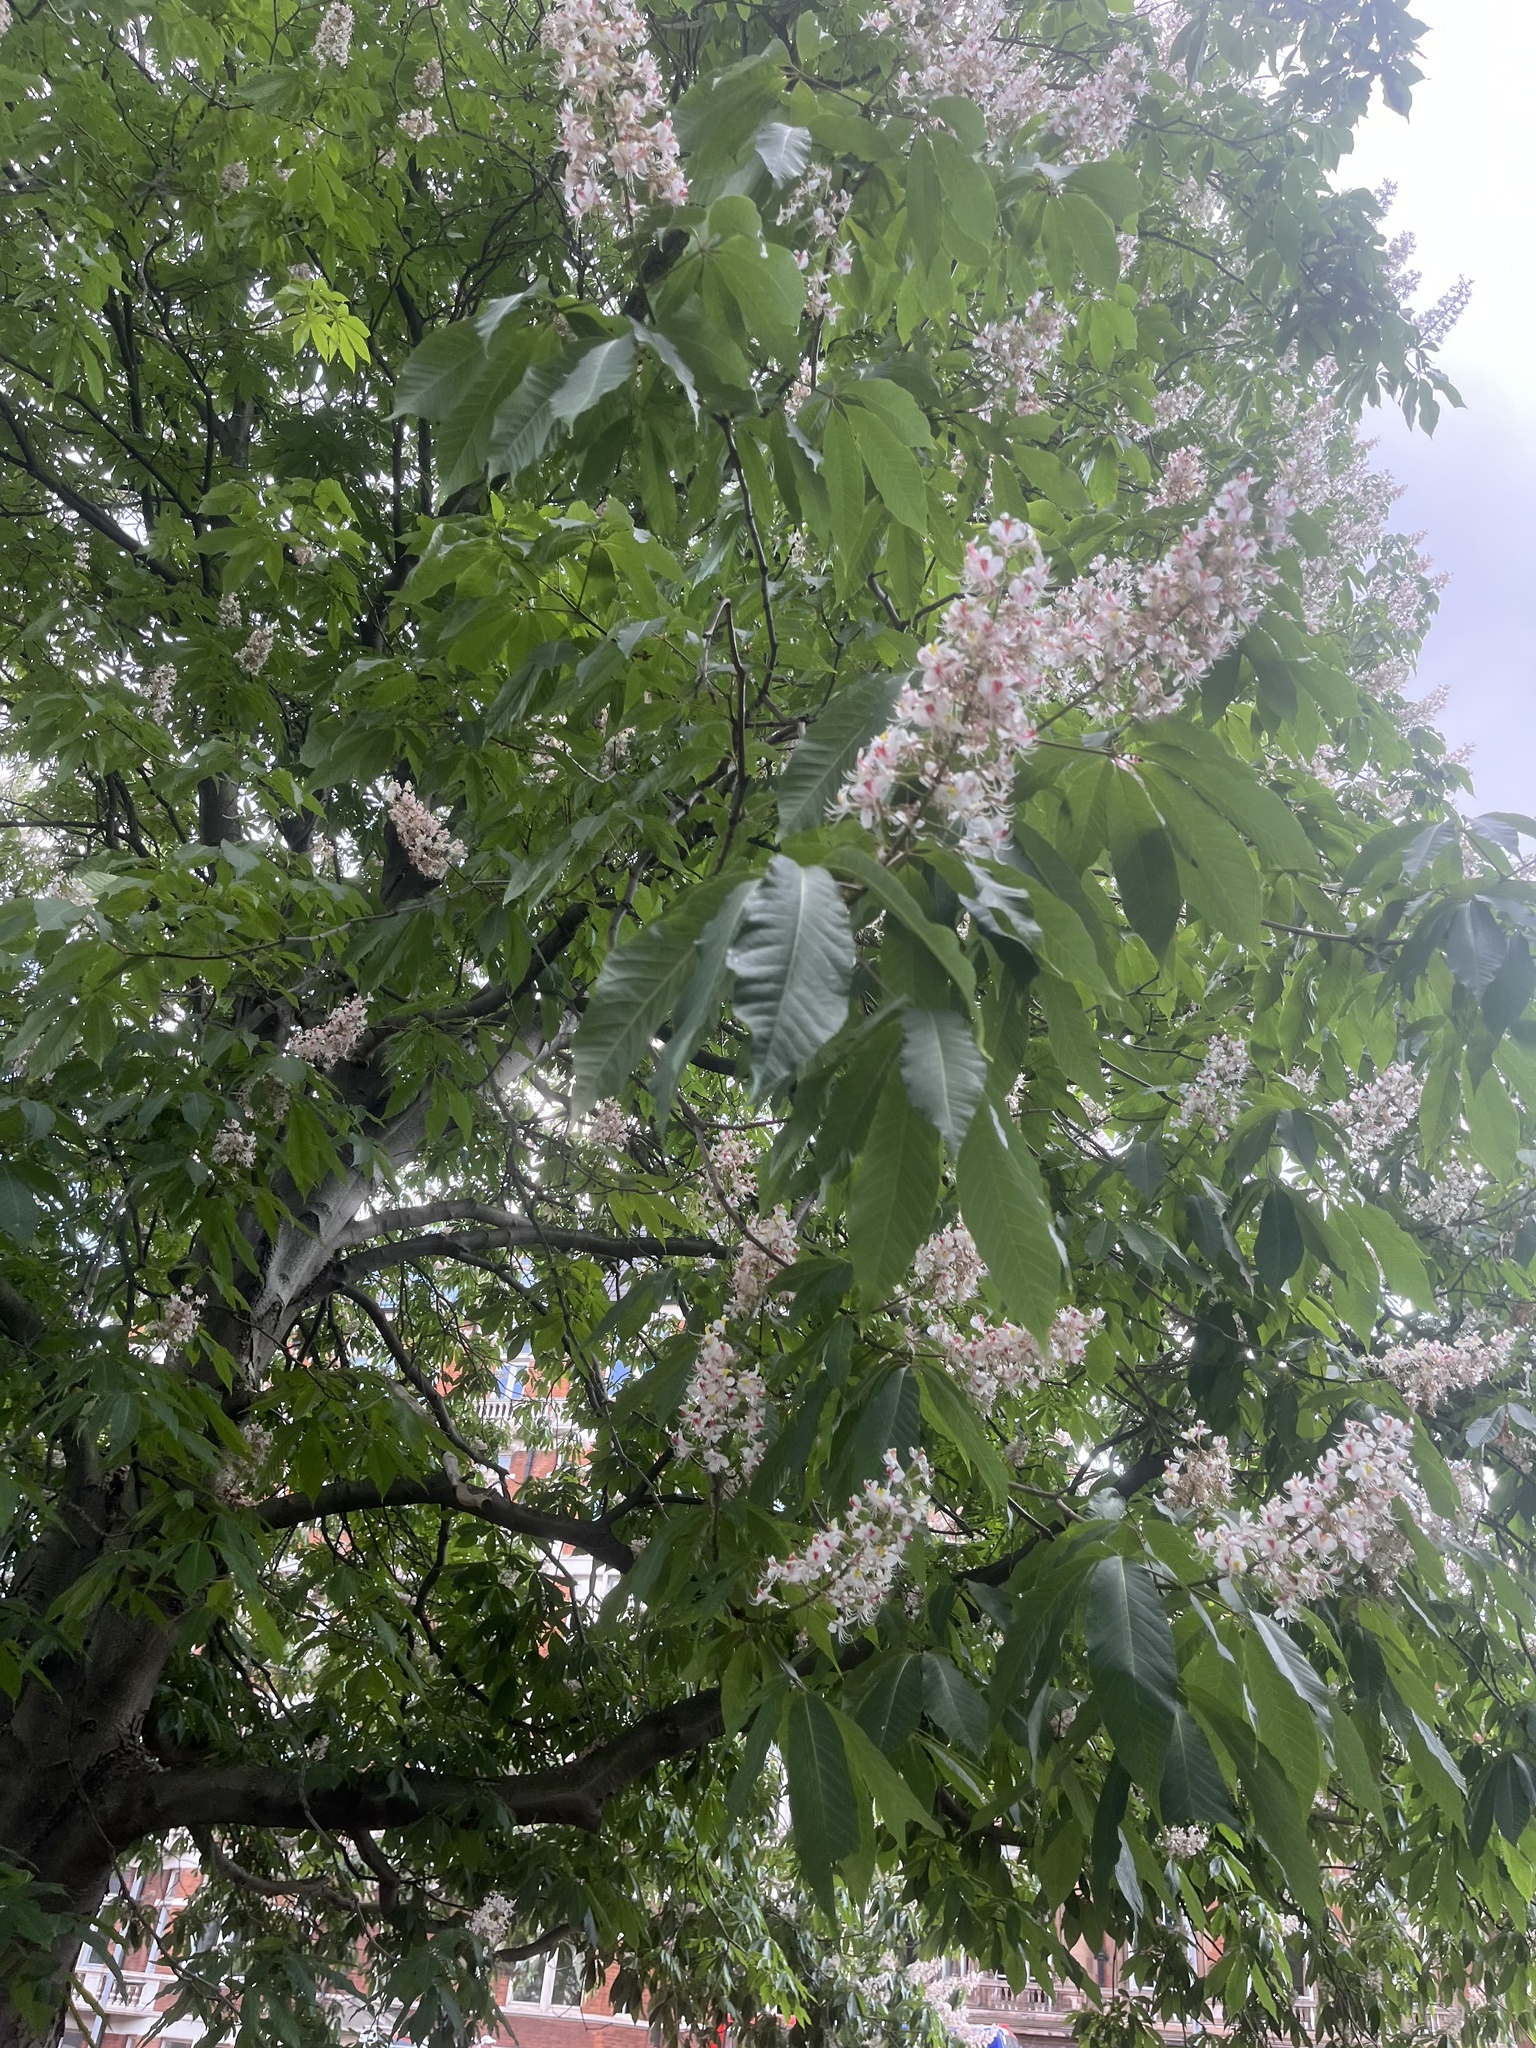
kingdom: Plantae
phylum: Tracheophyta
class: Magnoliopsida
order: Sapindales
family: Sapindaceae
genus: Aesculus
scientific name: Aesculus hippocastanum
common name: Horse-chestnut
